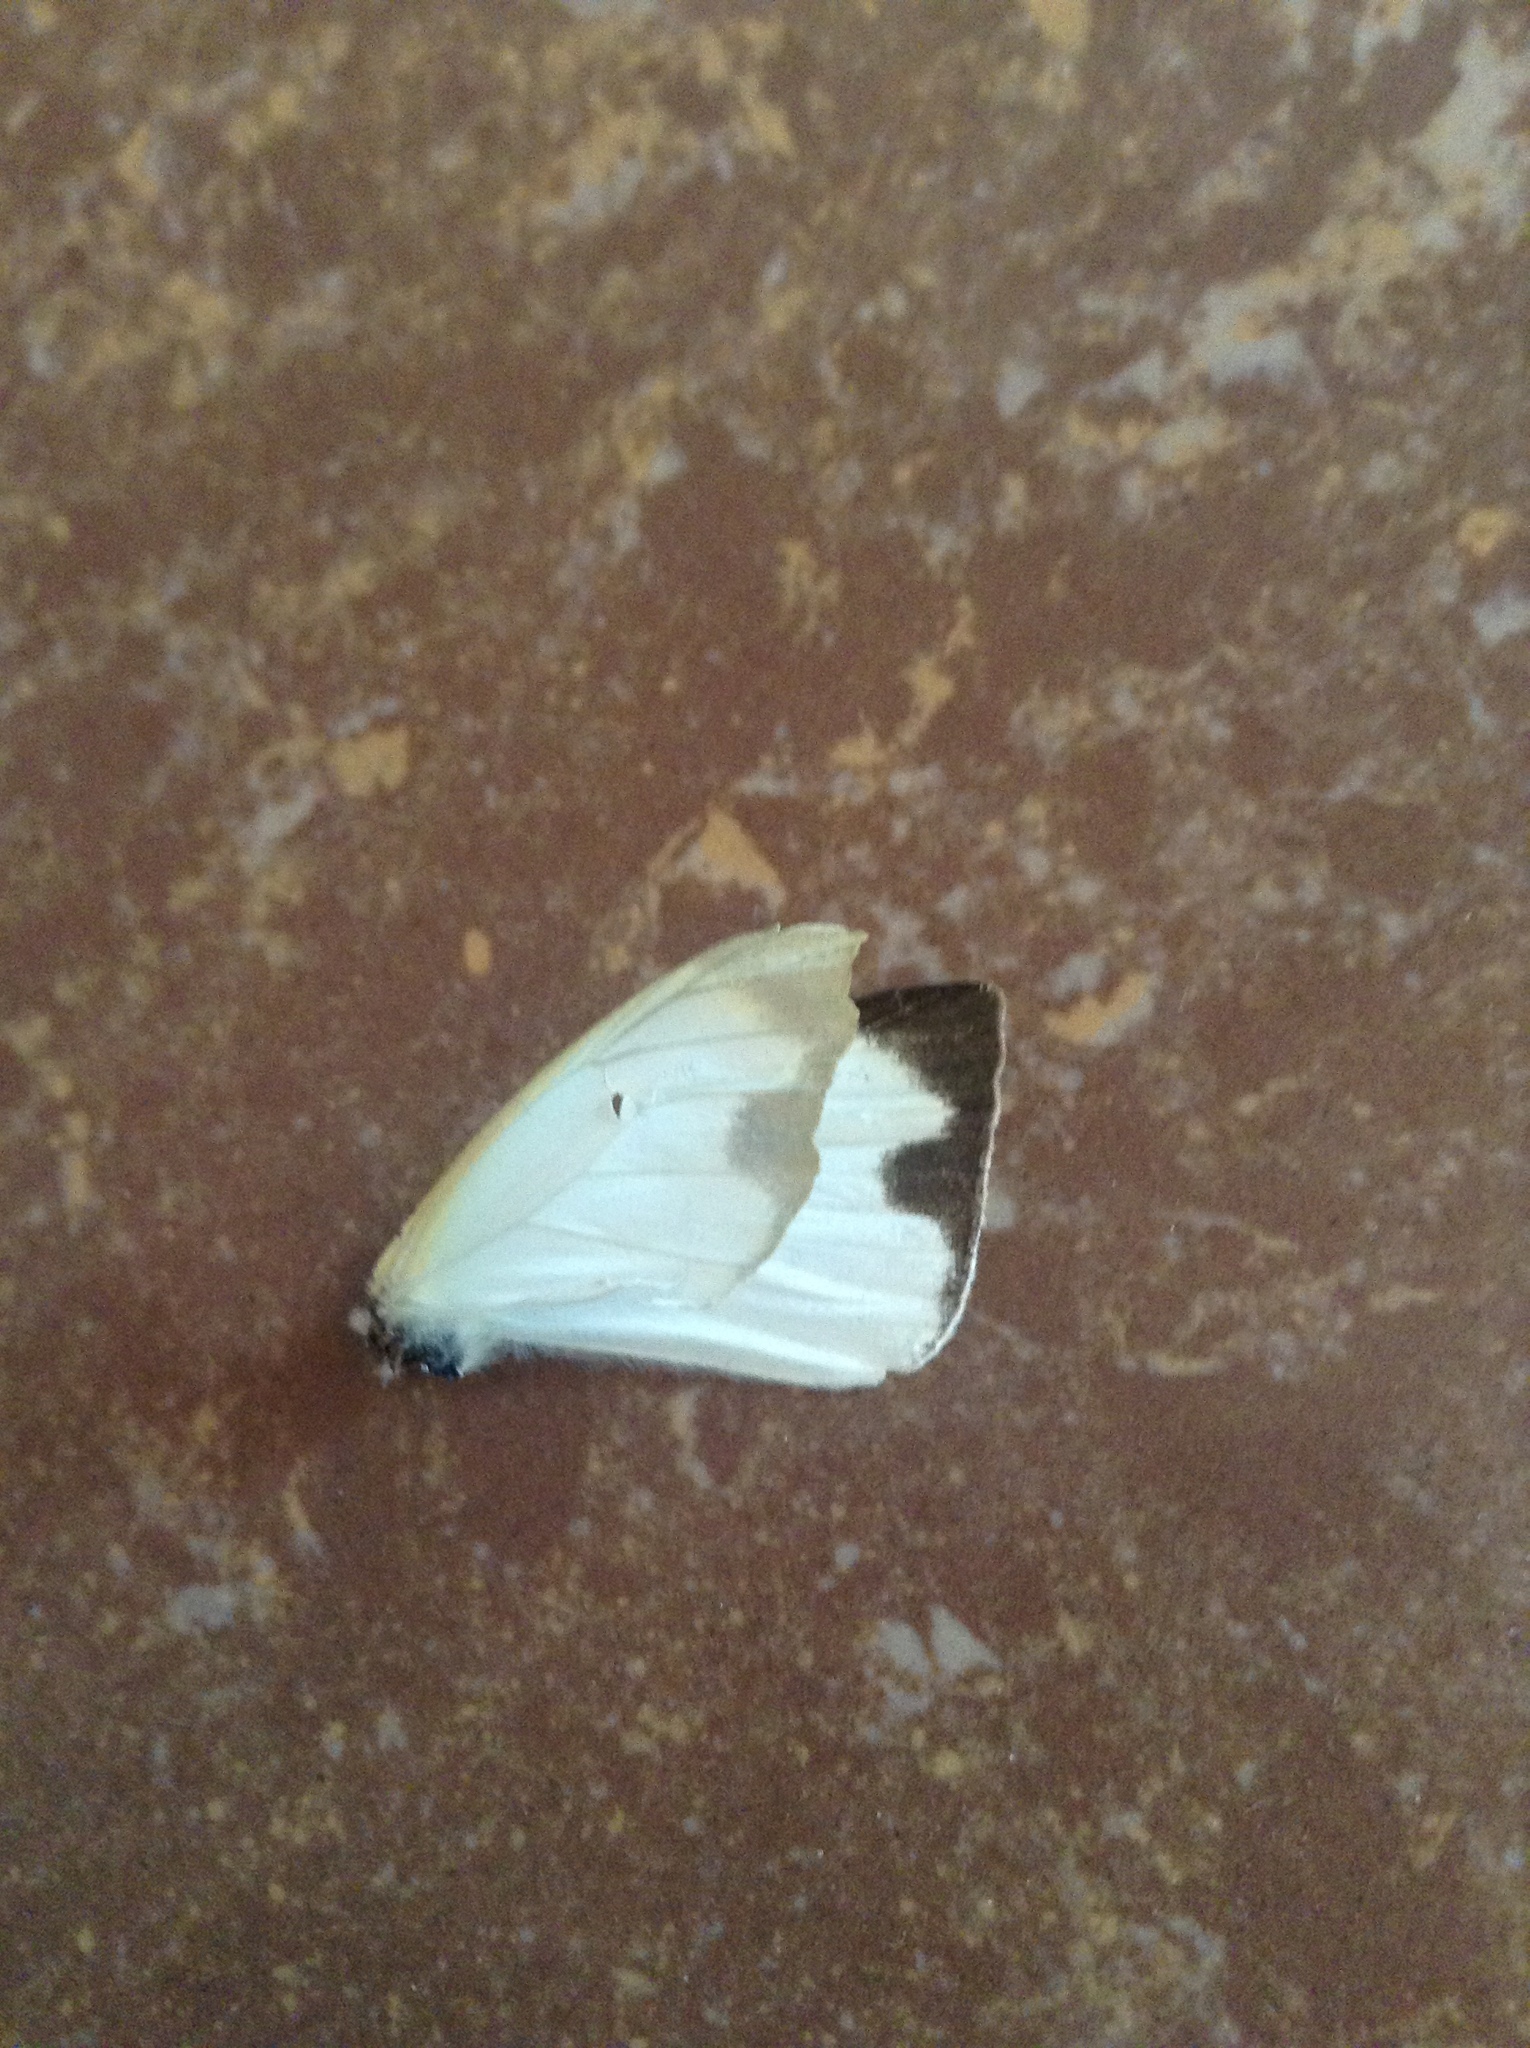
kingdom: Animalia
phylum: Arthropoda
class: Insecta
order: Lepidoptera
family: Pieridae
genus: Leptophobia
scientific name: Leptophobia aripa
